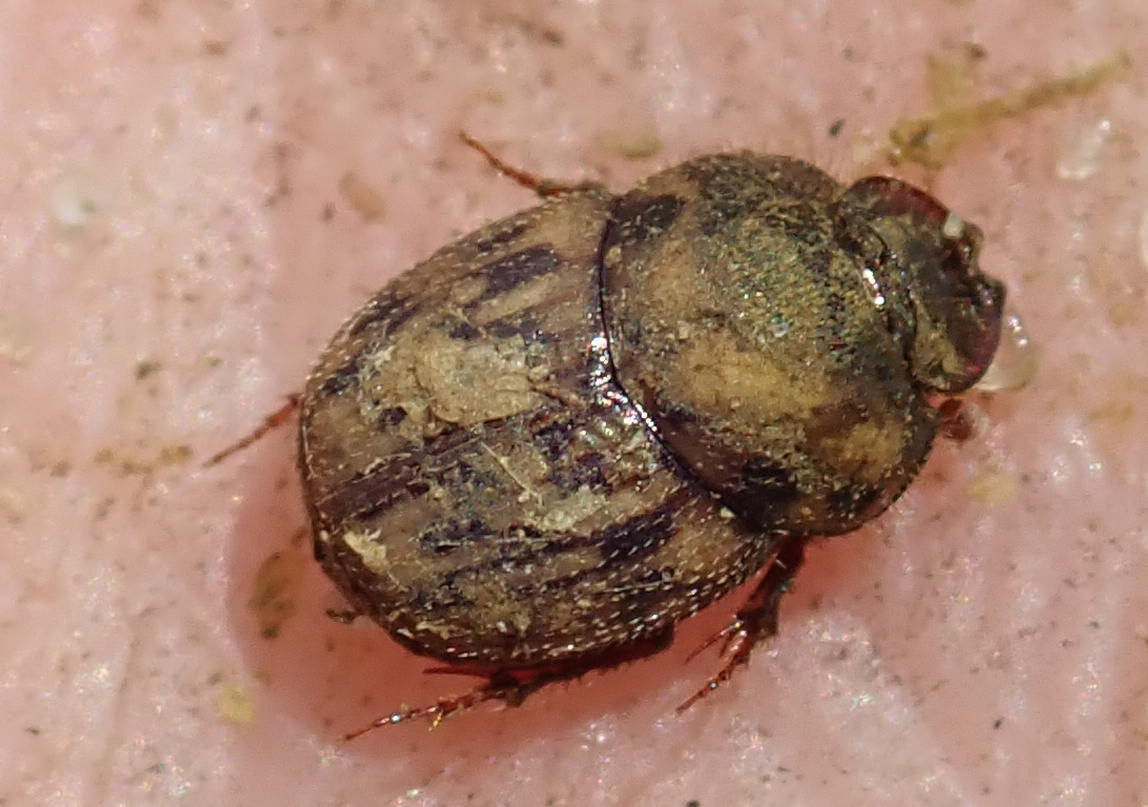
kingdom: Animalia
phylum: Arthropoda
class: Insecta
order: Coleoptera
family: Scarabaeidae
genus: Onthophagus
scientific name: Onthophagus variegatus
